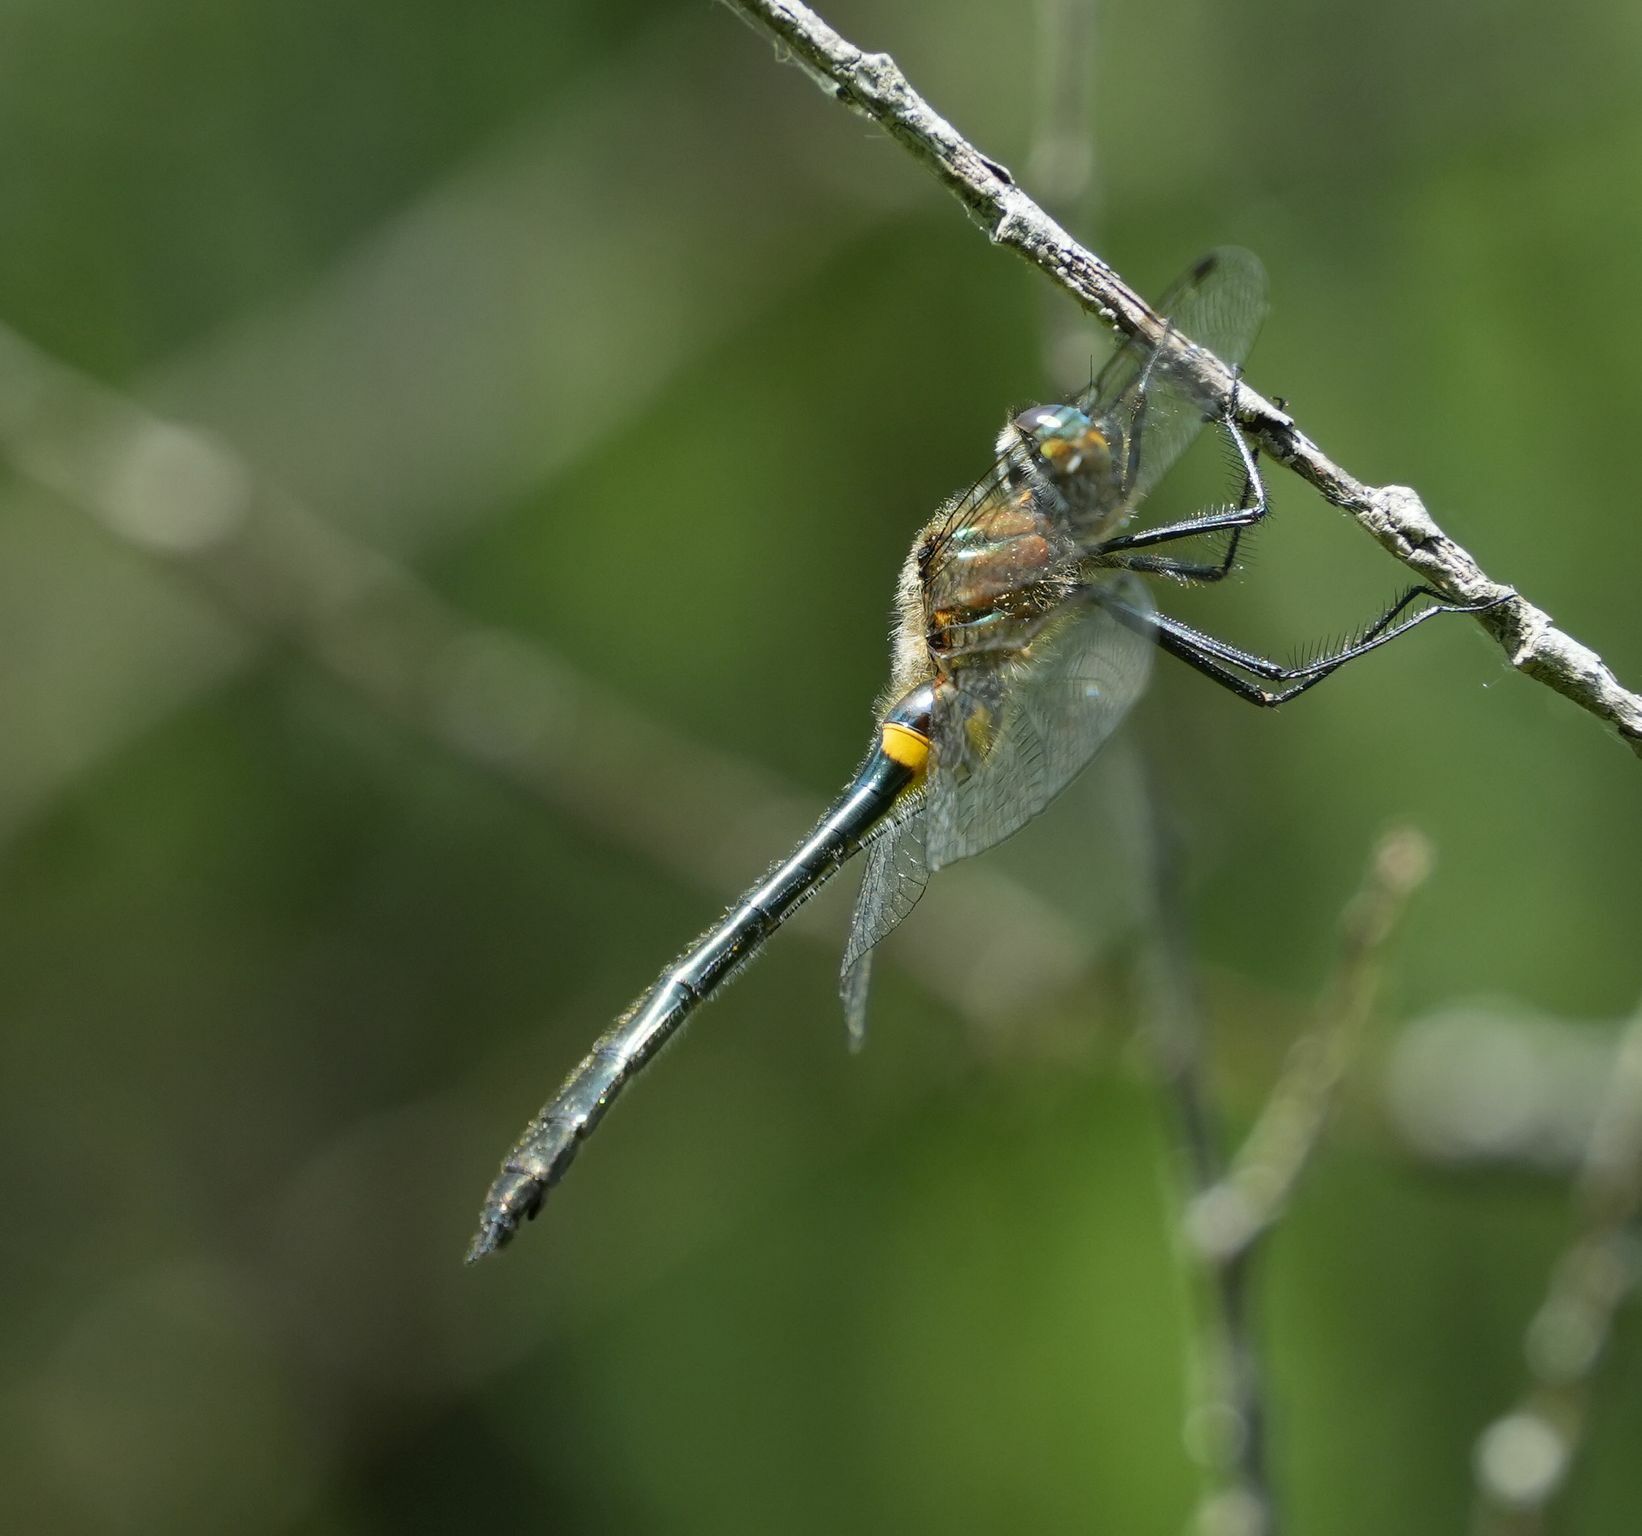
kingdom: Animalia
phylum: Arthropoda
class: Insecta
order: Odonata
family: Corduliidae
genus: Dorocordulia
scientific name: Dorocordulia libera
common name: Racket-tailed emerald
